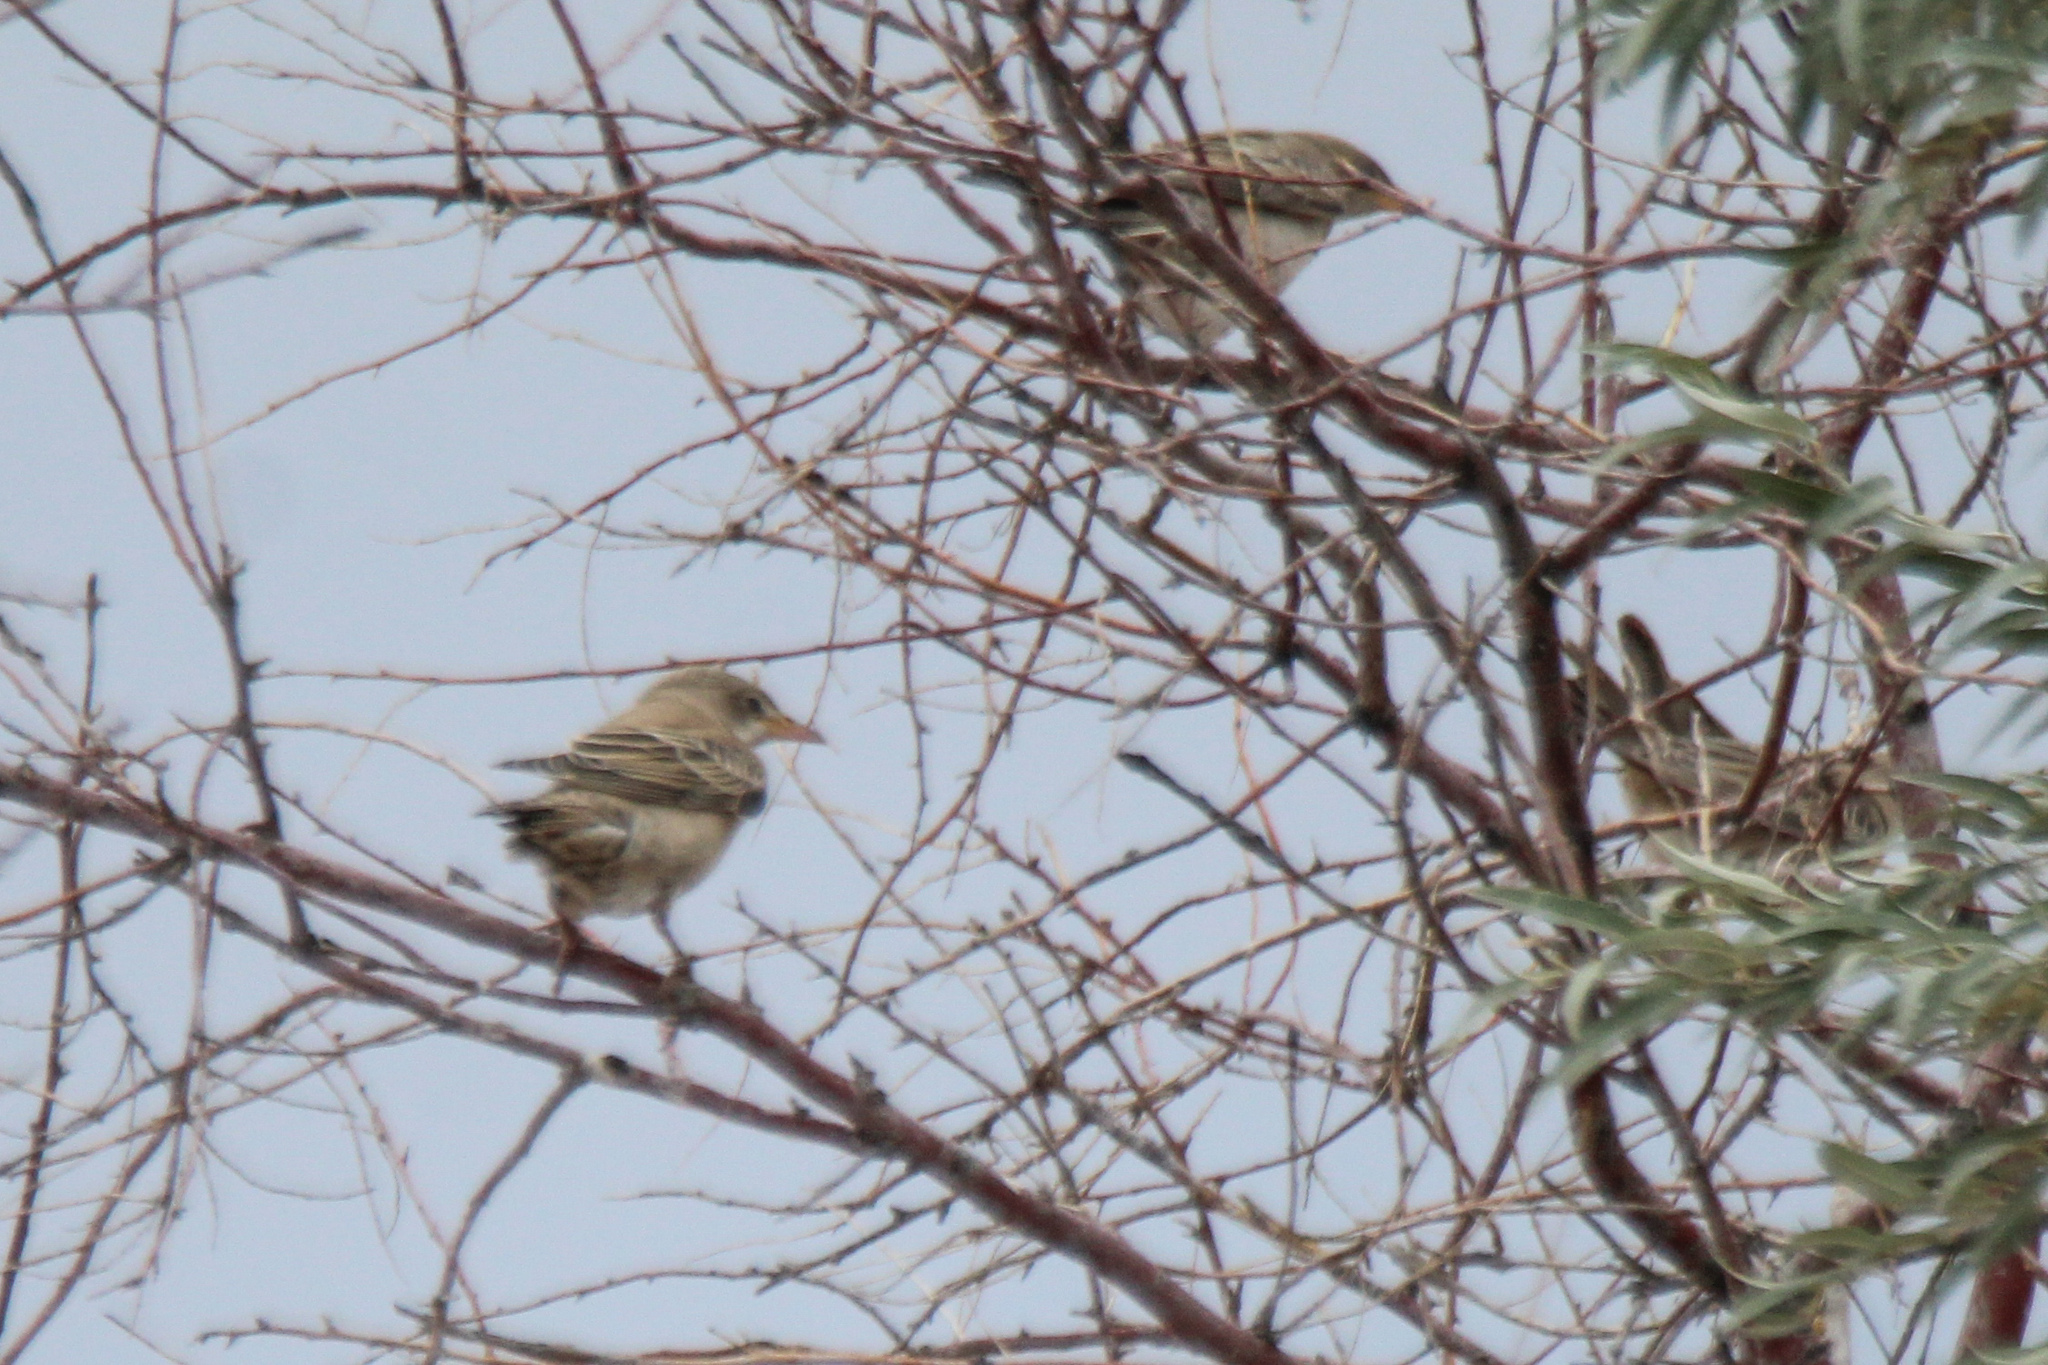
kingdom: Animalia
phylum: Chordata
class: Aves
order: Passeriformes
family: Sturnidae
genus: Pastor
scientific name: Pastor roseus
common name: Rosy starling
